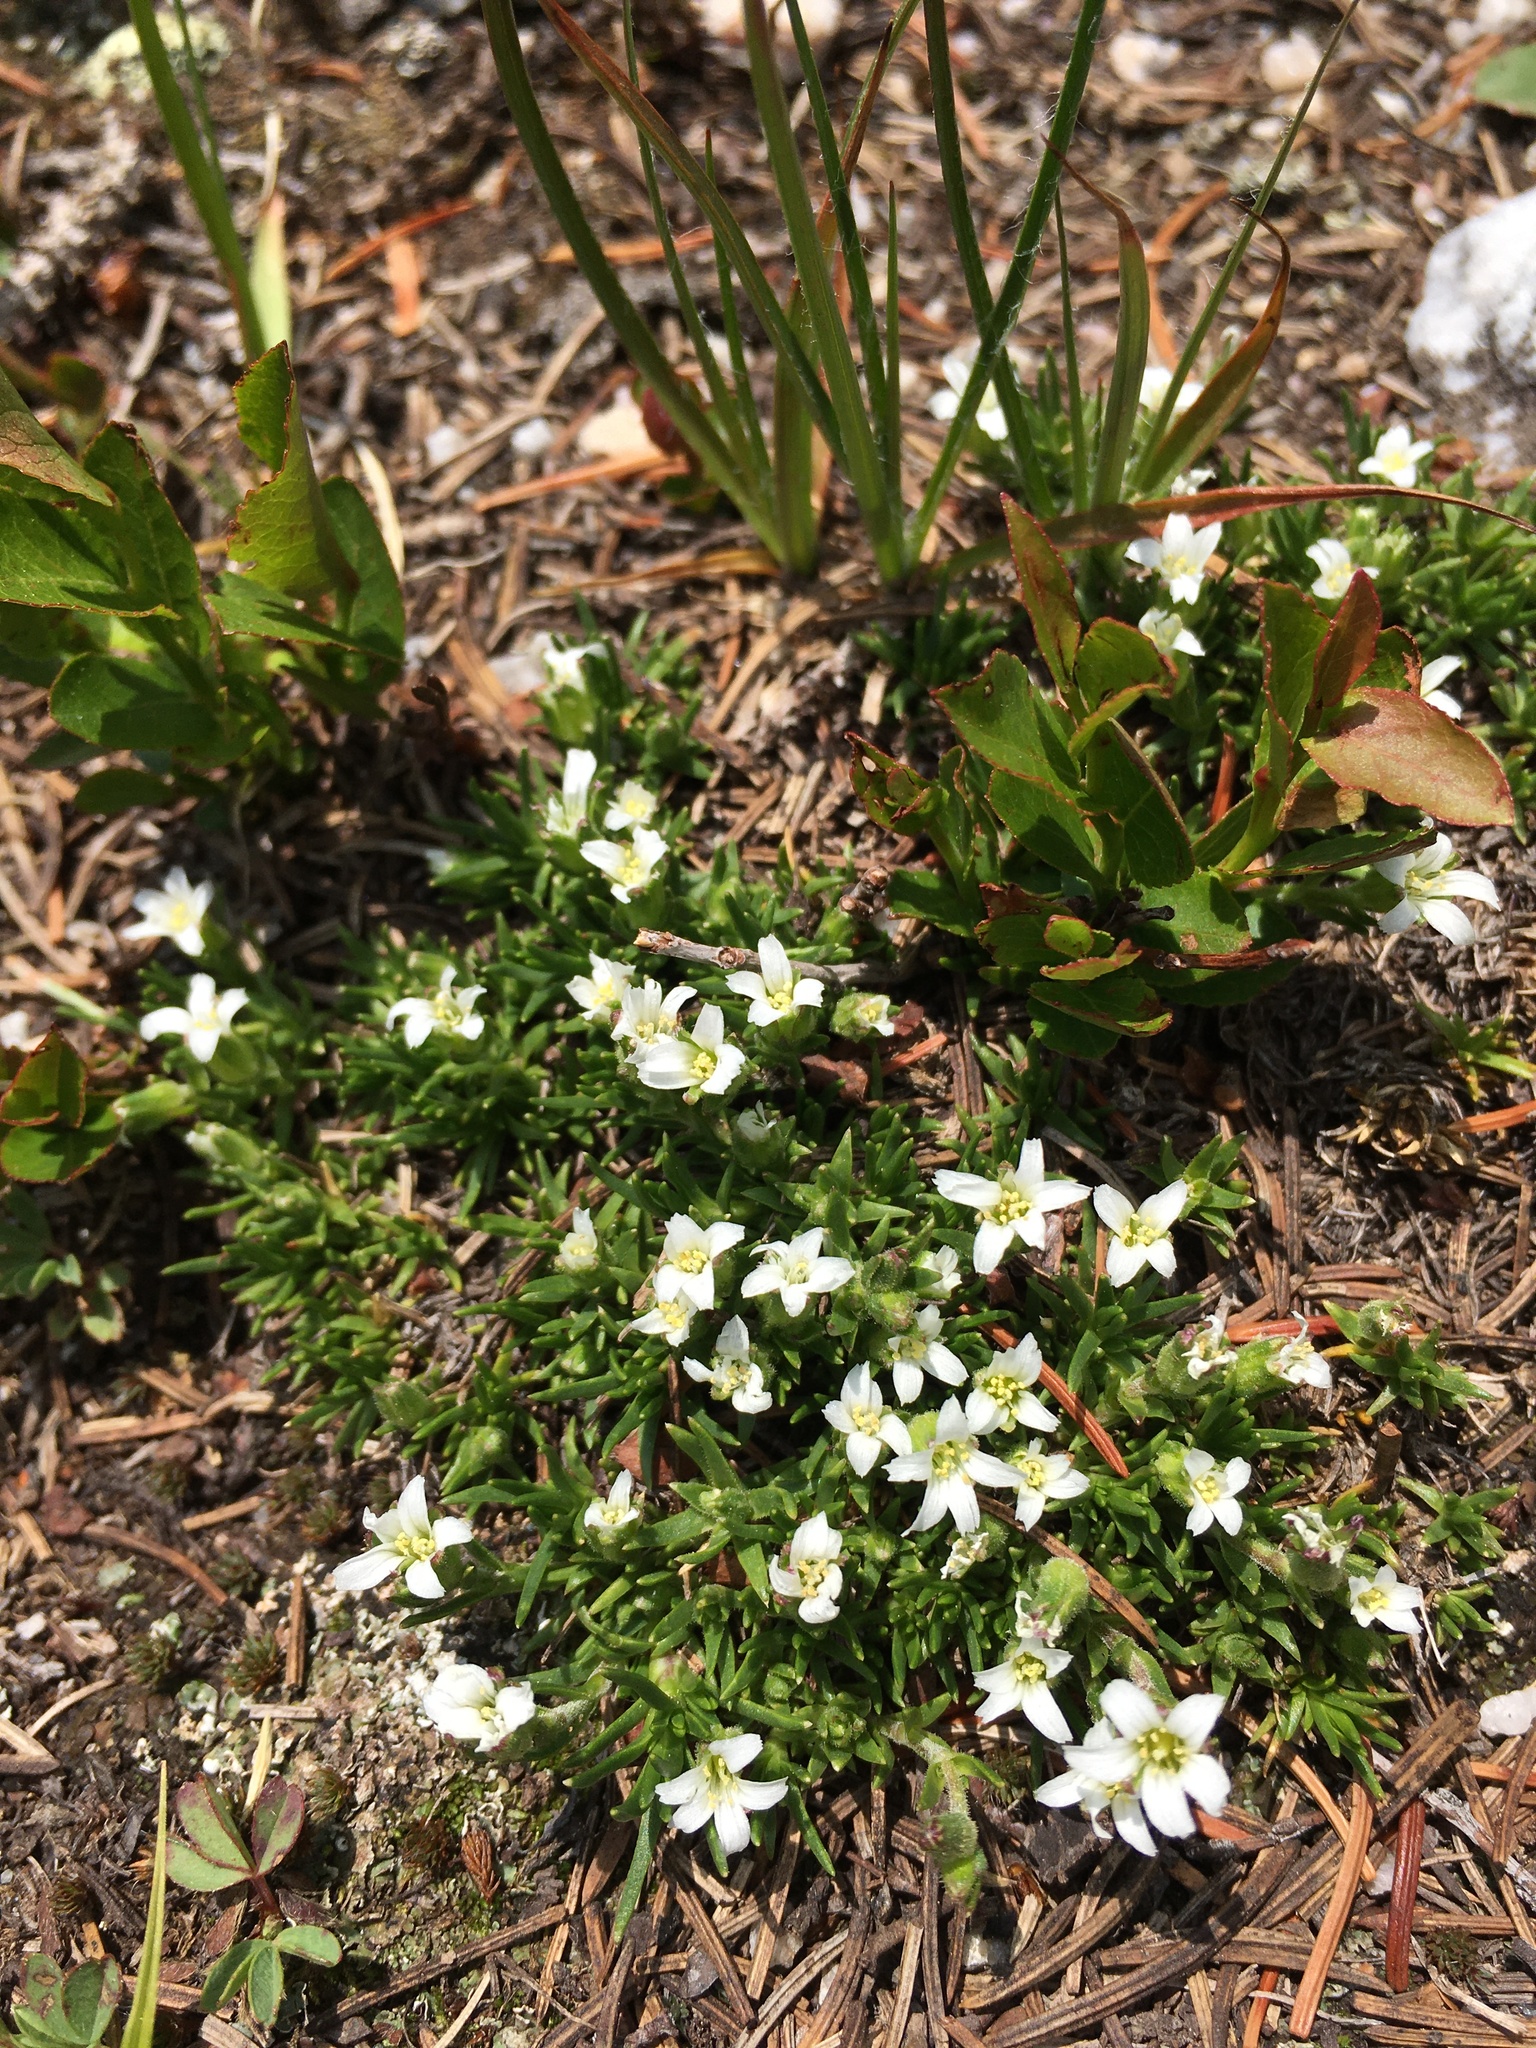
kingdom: Plantae
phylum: Tracheophyta
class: Magnoliopsida
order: Caryophyllales
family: Caryophyllaceae
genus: Cherleria
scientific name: Cherleria obtusiloba
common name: Alpine stitchwort
